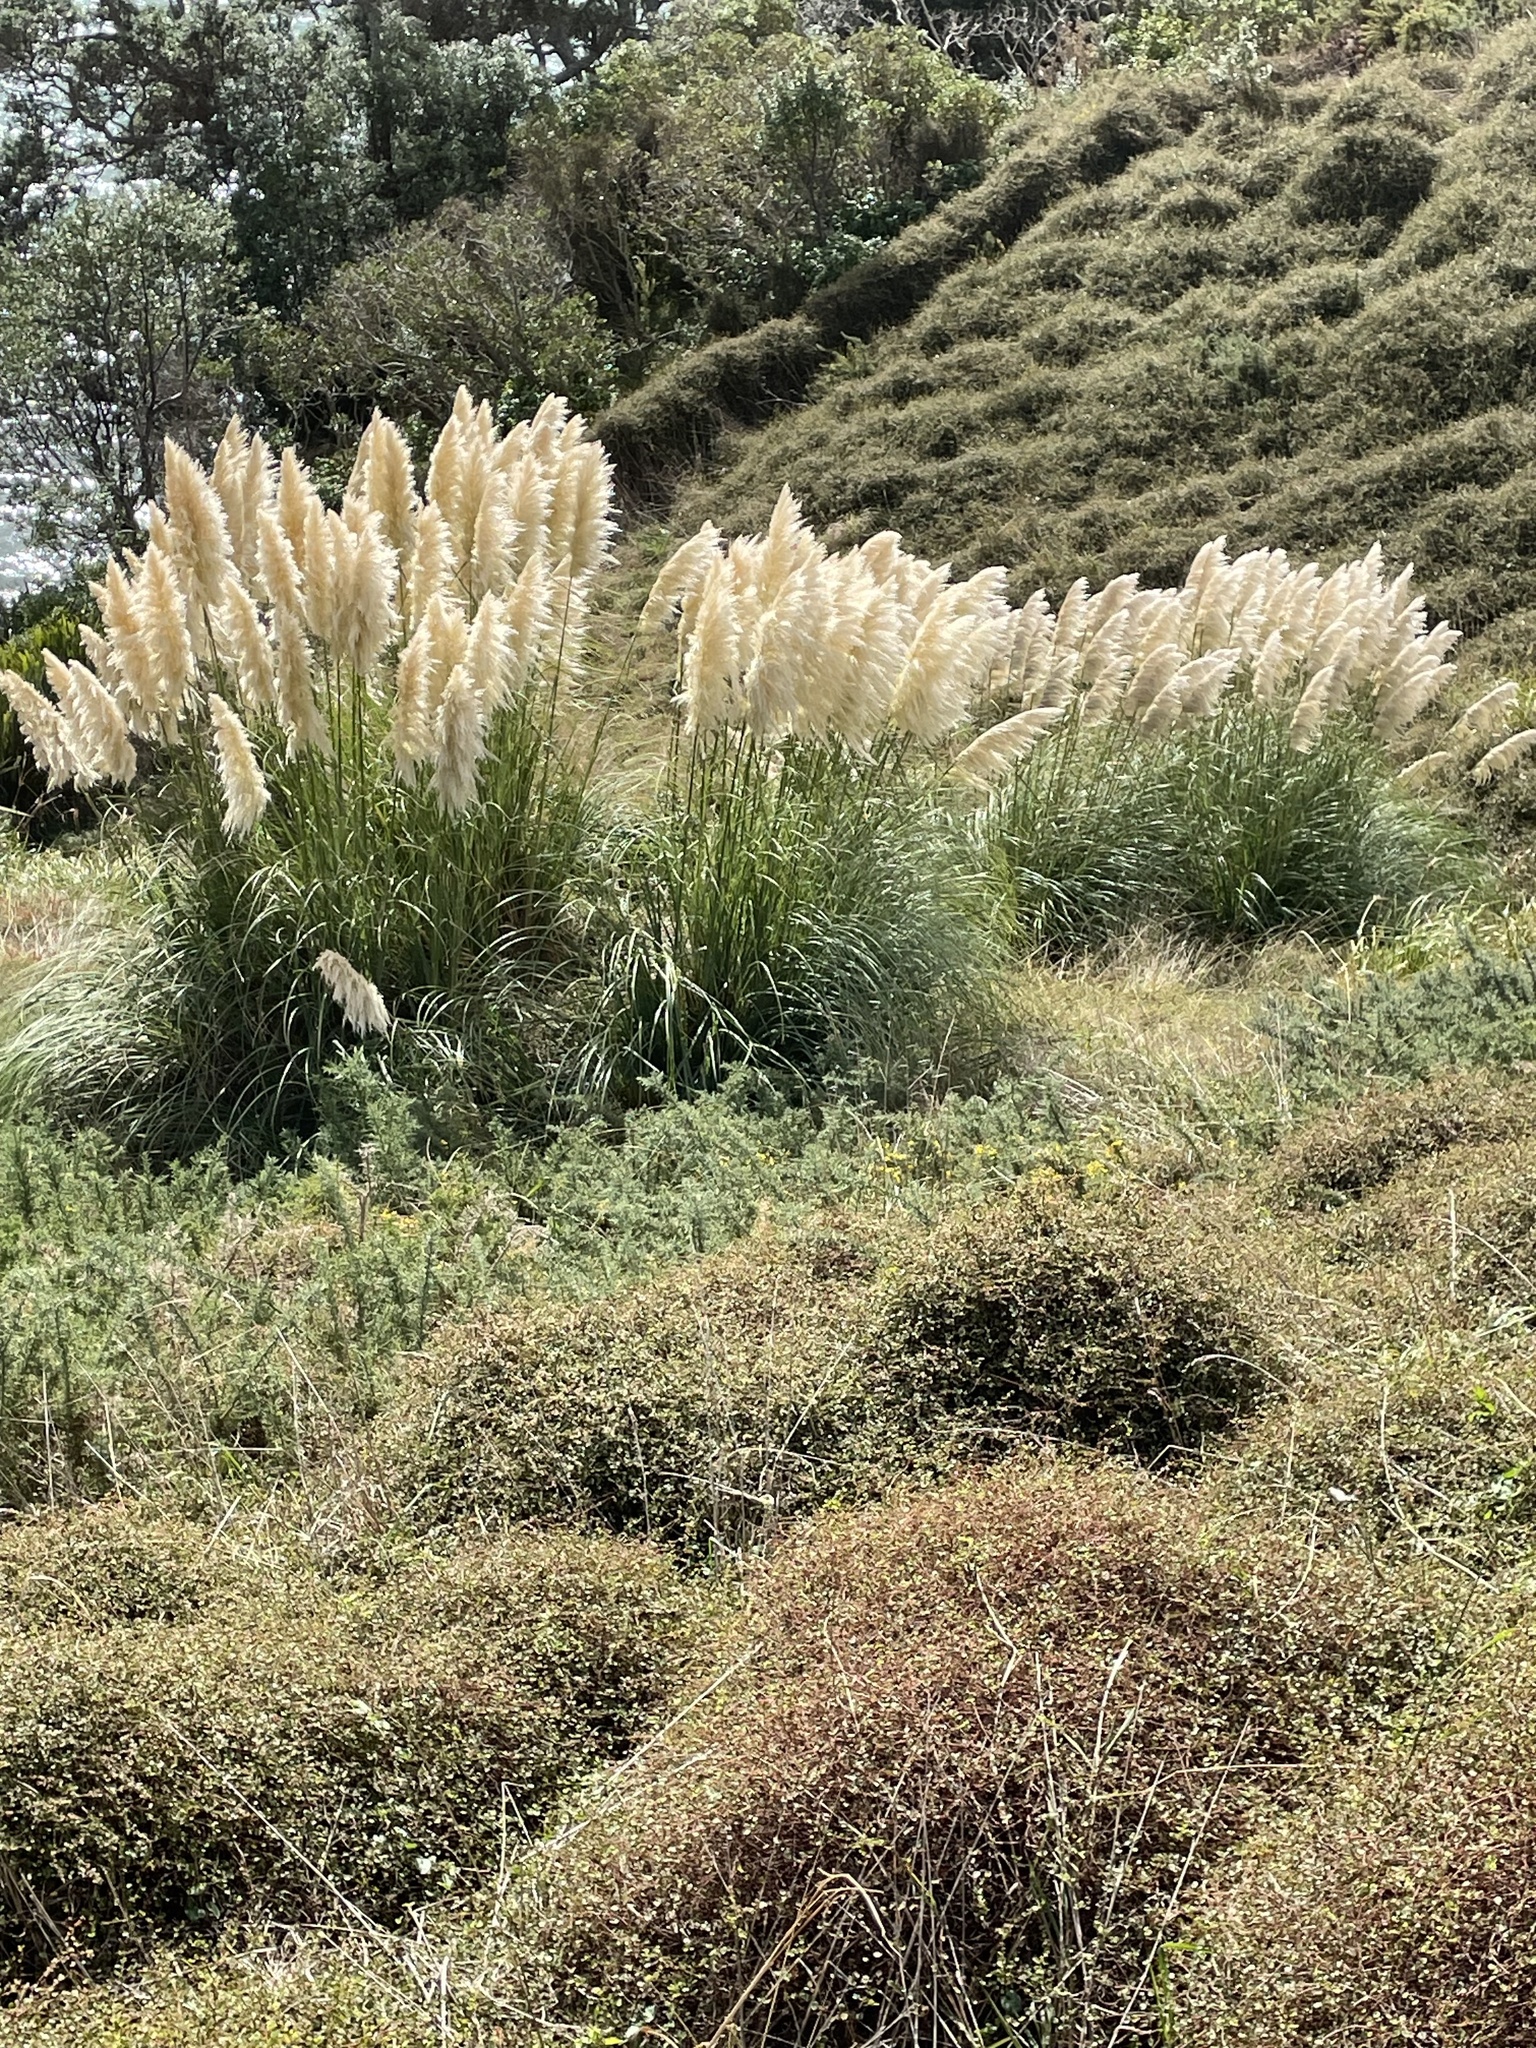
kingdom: Plantae
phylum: Tracheophyta
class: Liliopsida
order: Poales
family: Poaceae
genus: Cortaderia
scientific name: Cortaderia selloana
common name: Uruguayan pampas grass
